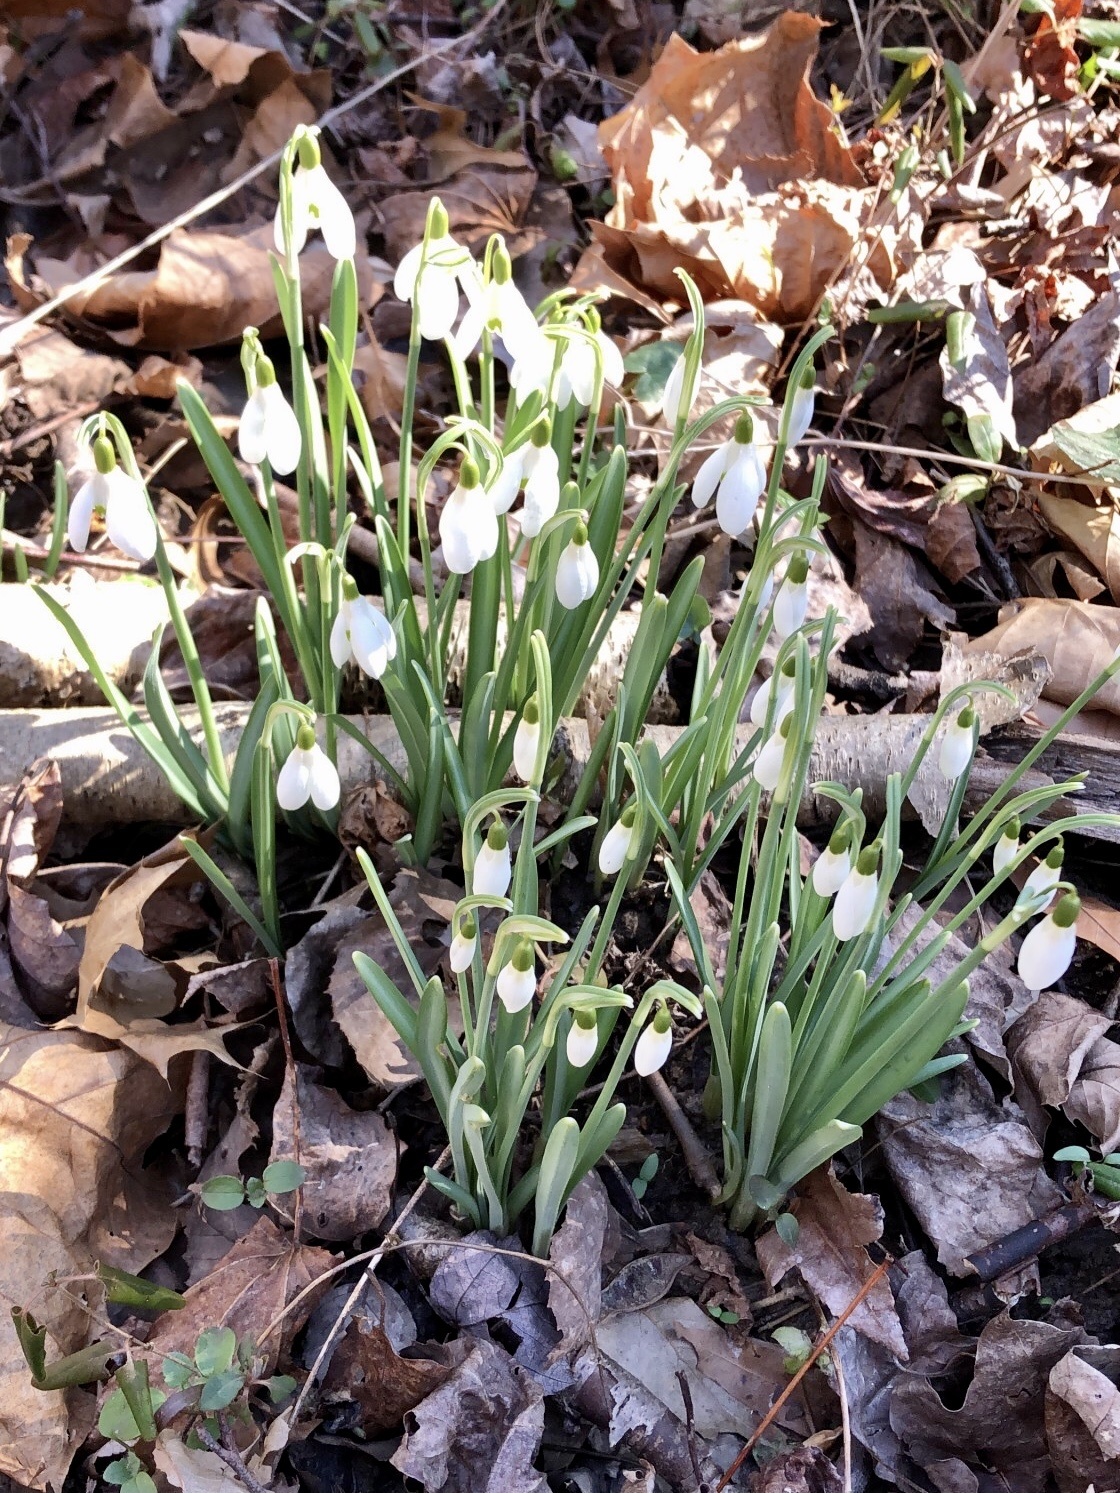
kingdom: Plantae
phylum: Tracheophyta
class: Liliopsida
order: Asparagales
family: Amaryllidaceae
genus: Galanthus
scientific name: Galanthus nivalis
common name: Snowdrop
